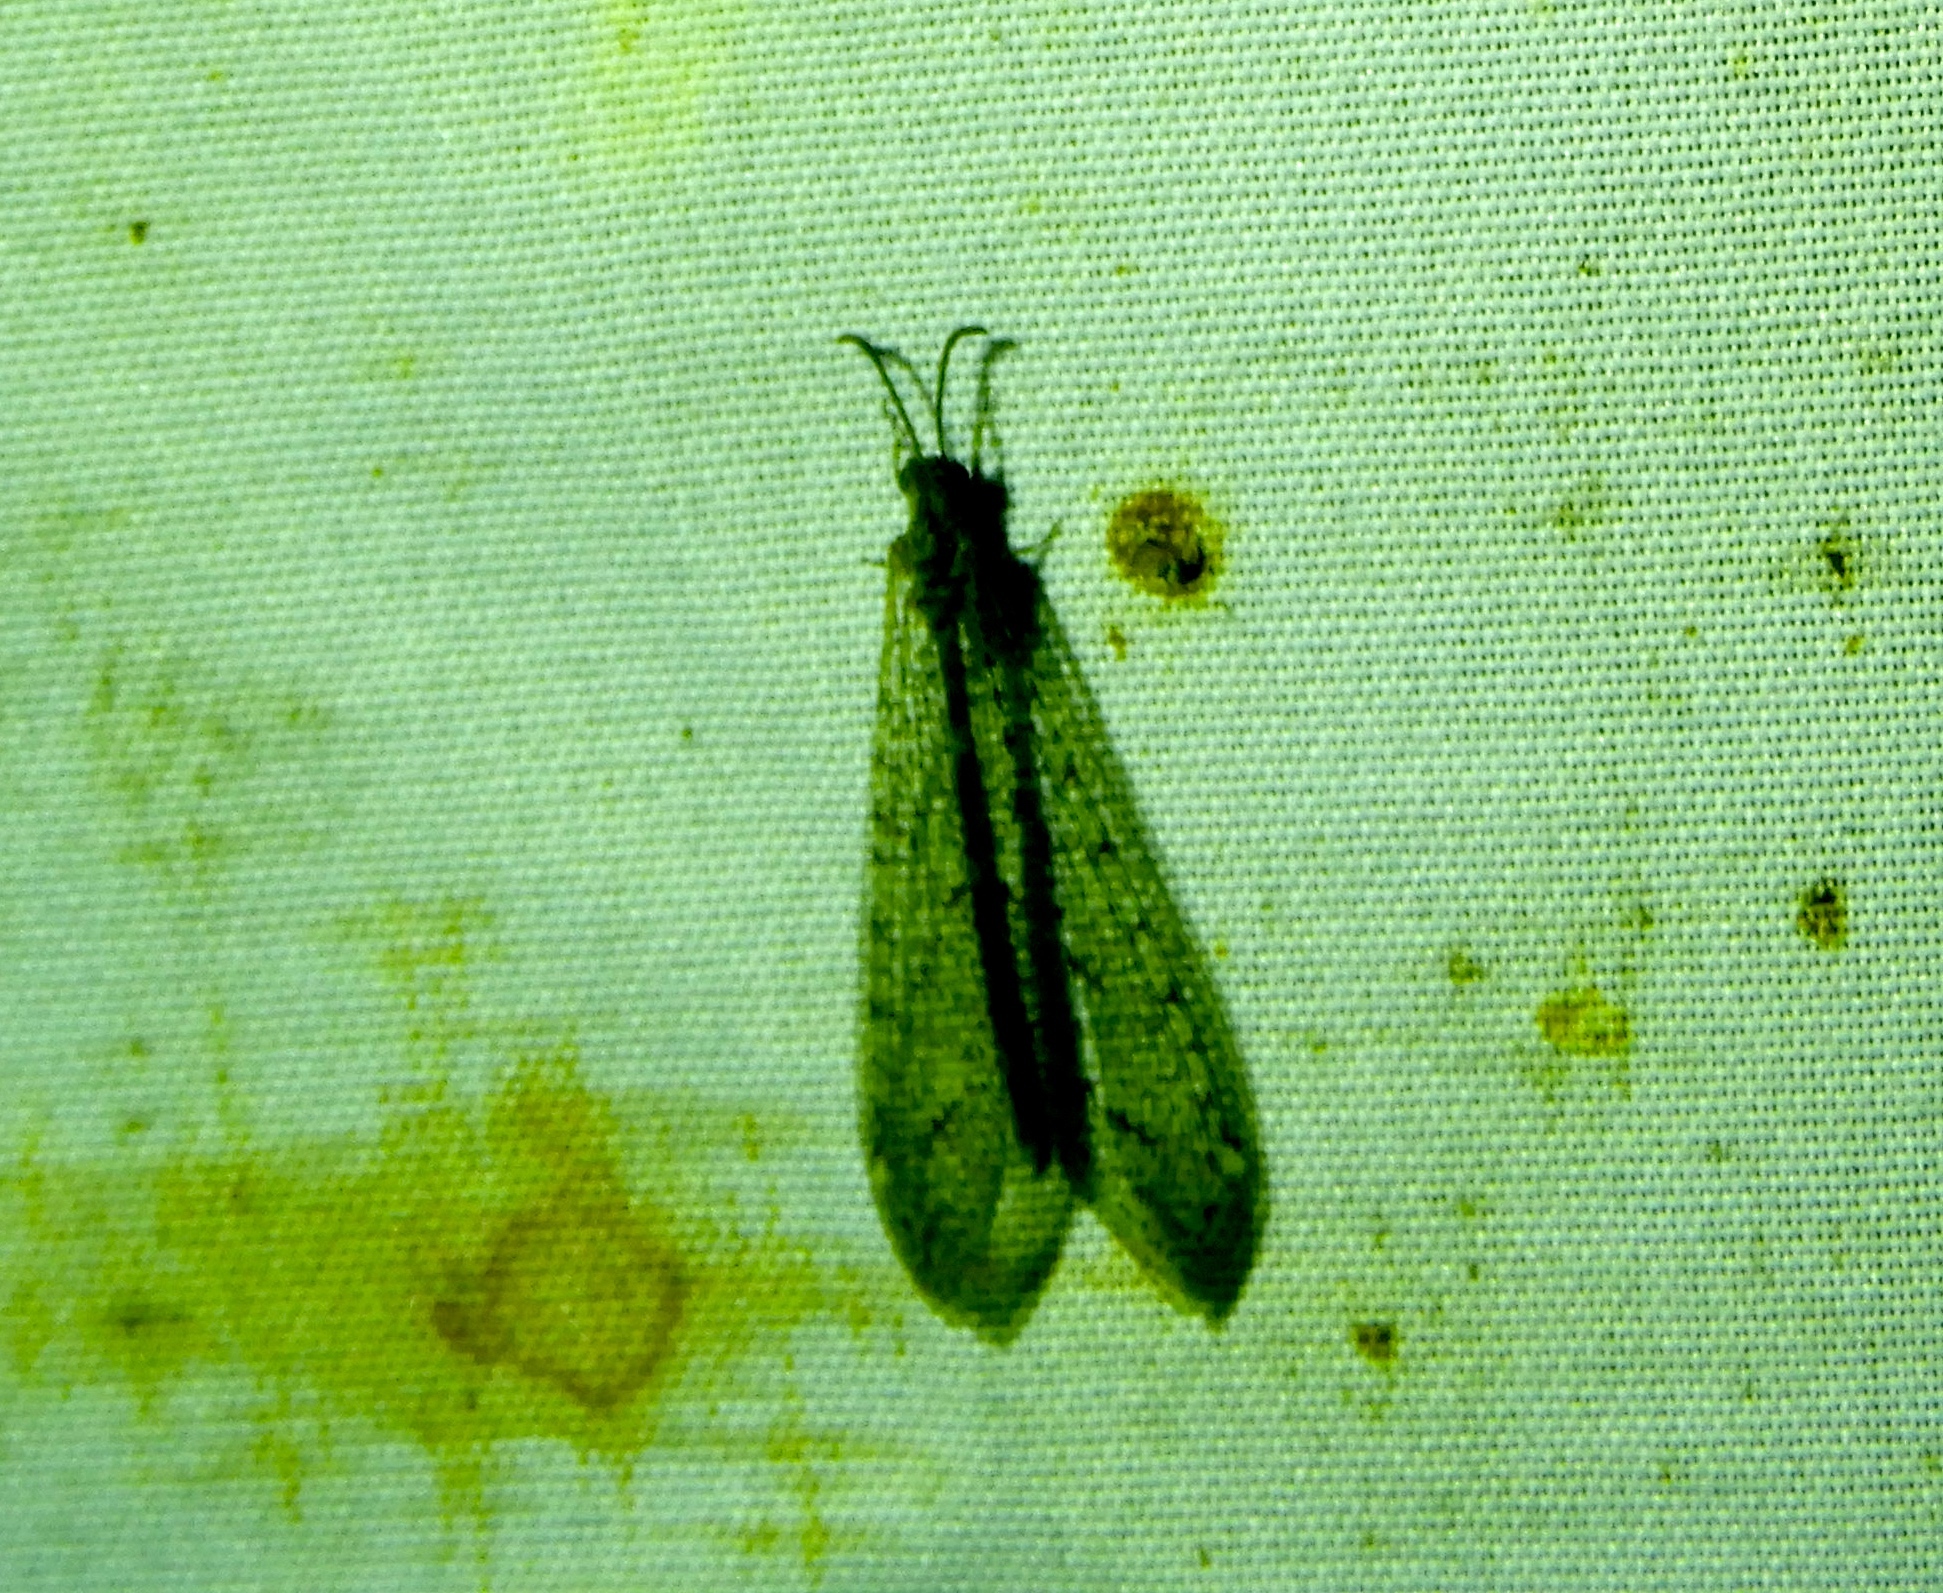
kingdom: Animalia
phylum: Arthropoda
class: Insecta
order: Neuroptera
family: Myrmeleontidae
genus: Atricholeon
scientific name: Atricholeon tuberculatus
